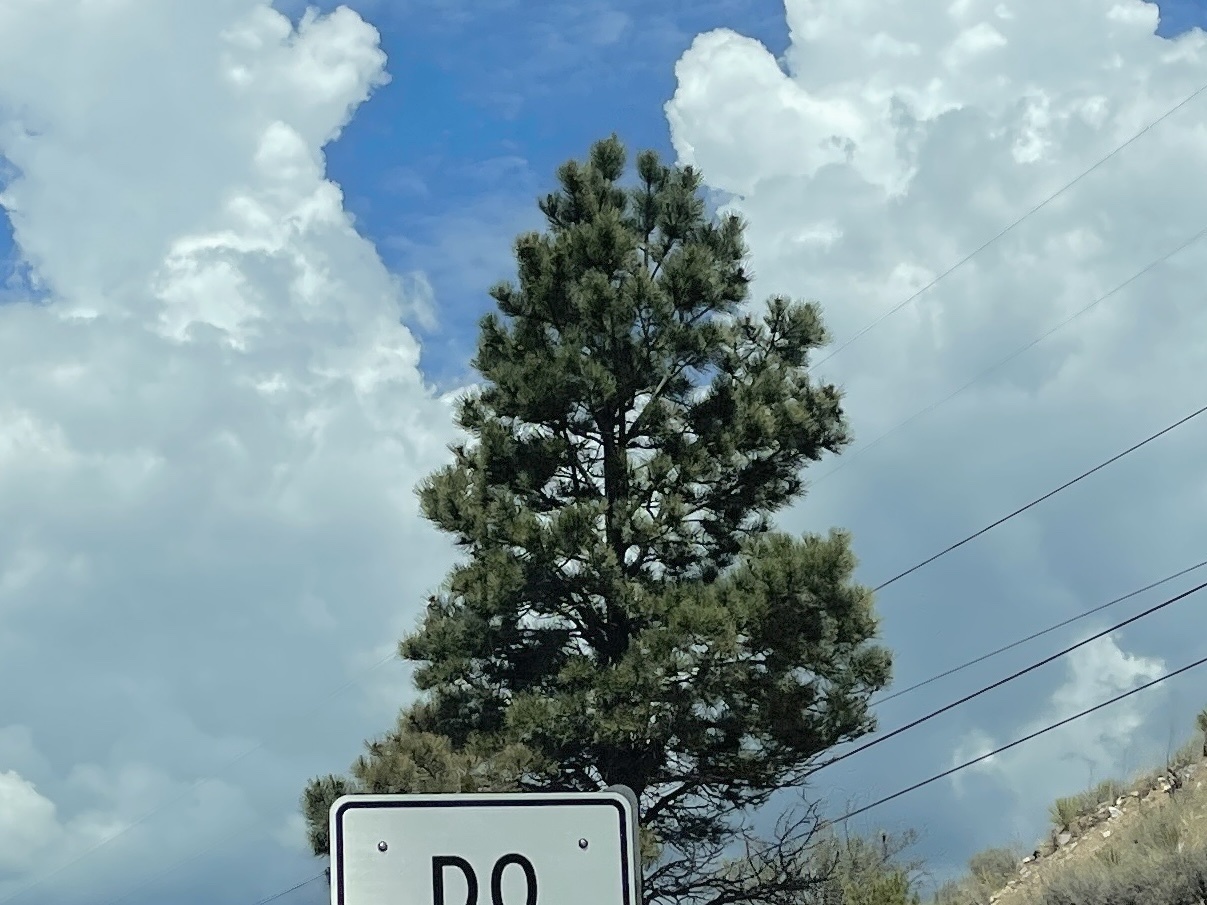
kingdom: Plantae
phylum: Tracheophyta
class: Pinopsida
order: Pinales
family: Pinaceae
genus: Pinus
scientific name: Pinus ponderosa
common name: Western yellow-pine
